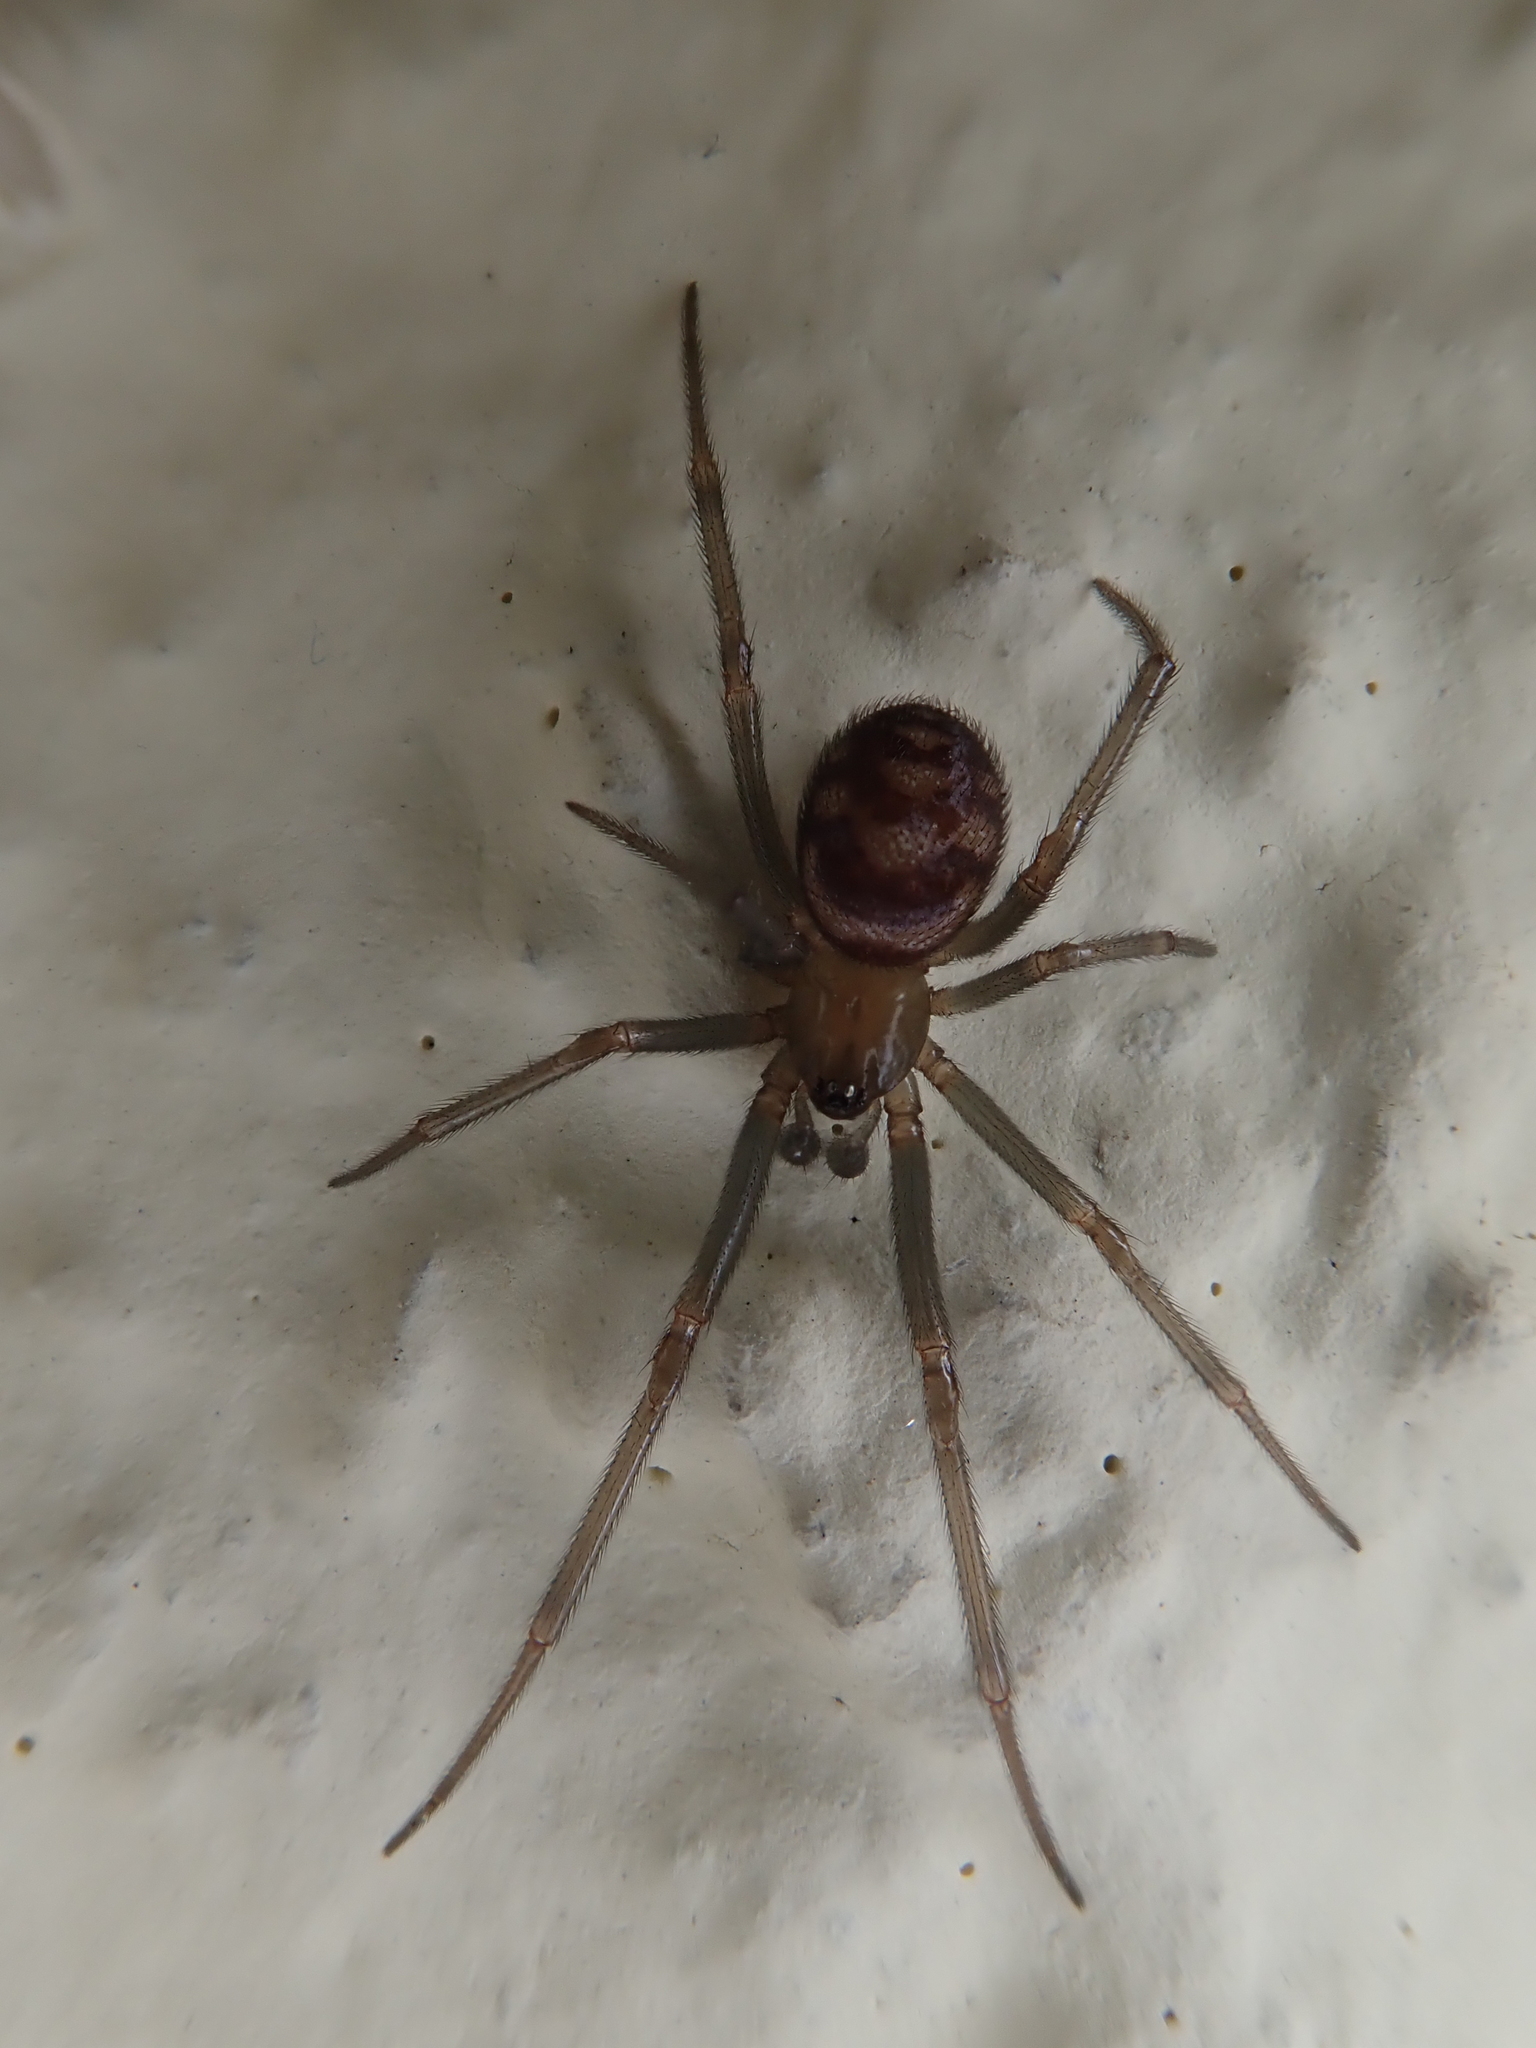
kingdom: Animalia
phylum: Arthropoda
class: Arachnida
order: Araneae
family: Theridiidae
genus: Steatoda
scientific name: Steatoda grossa
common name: False black widow
